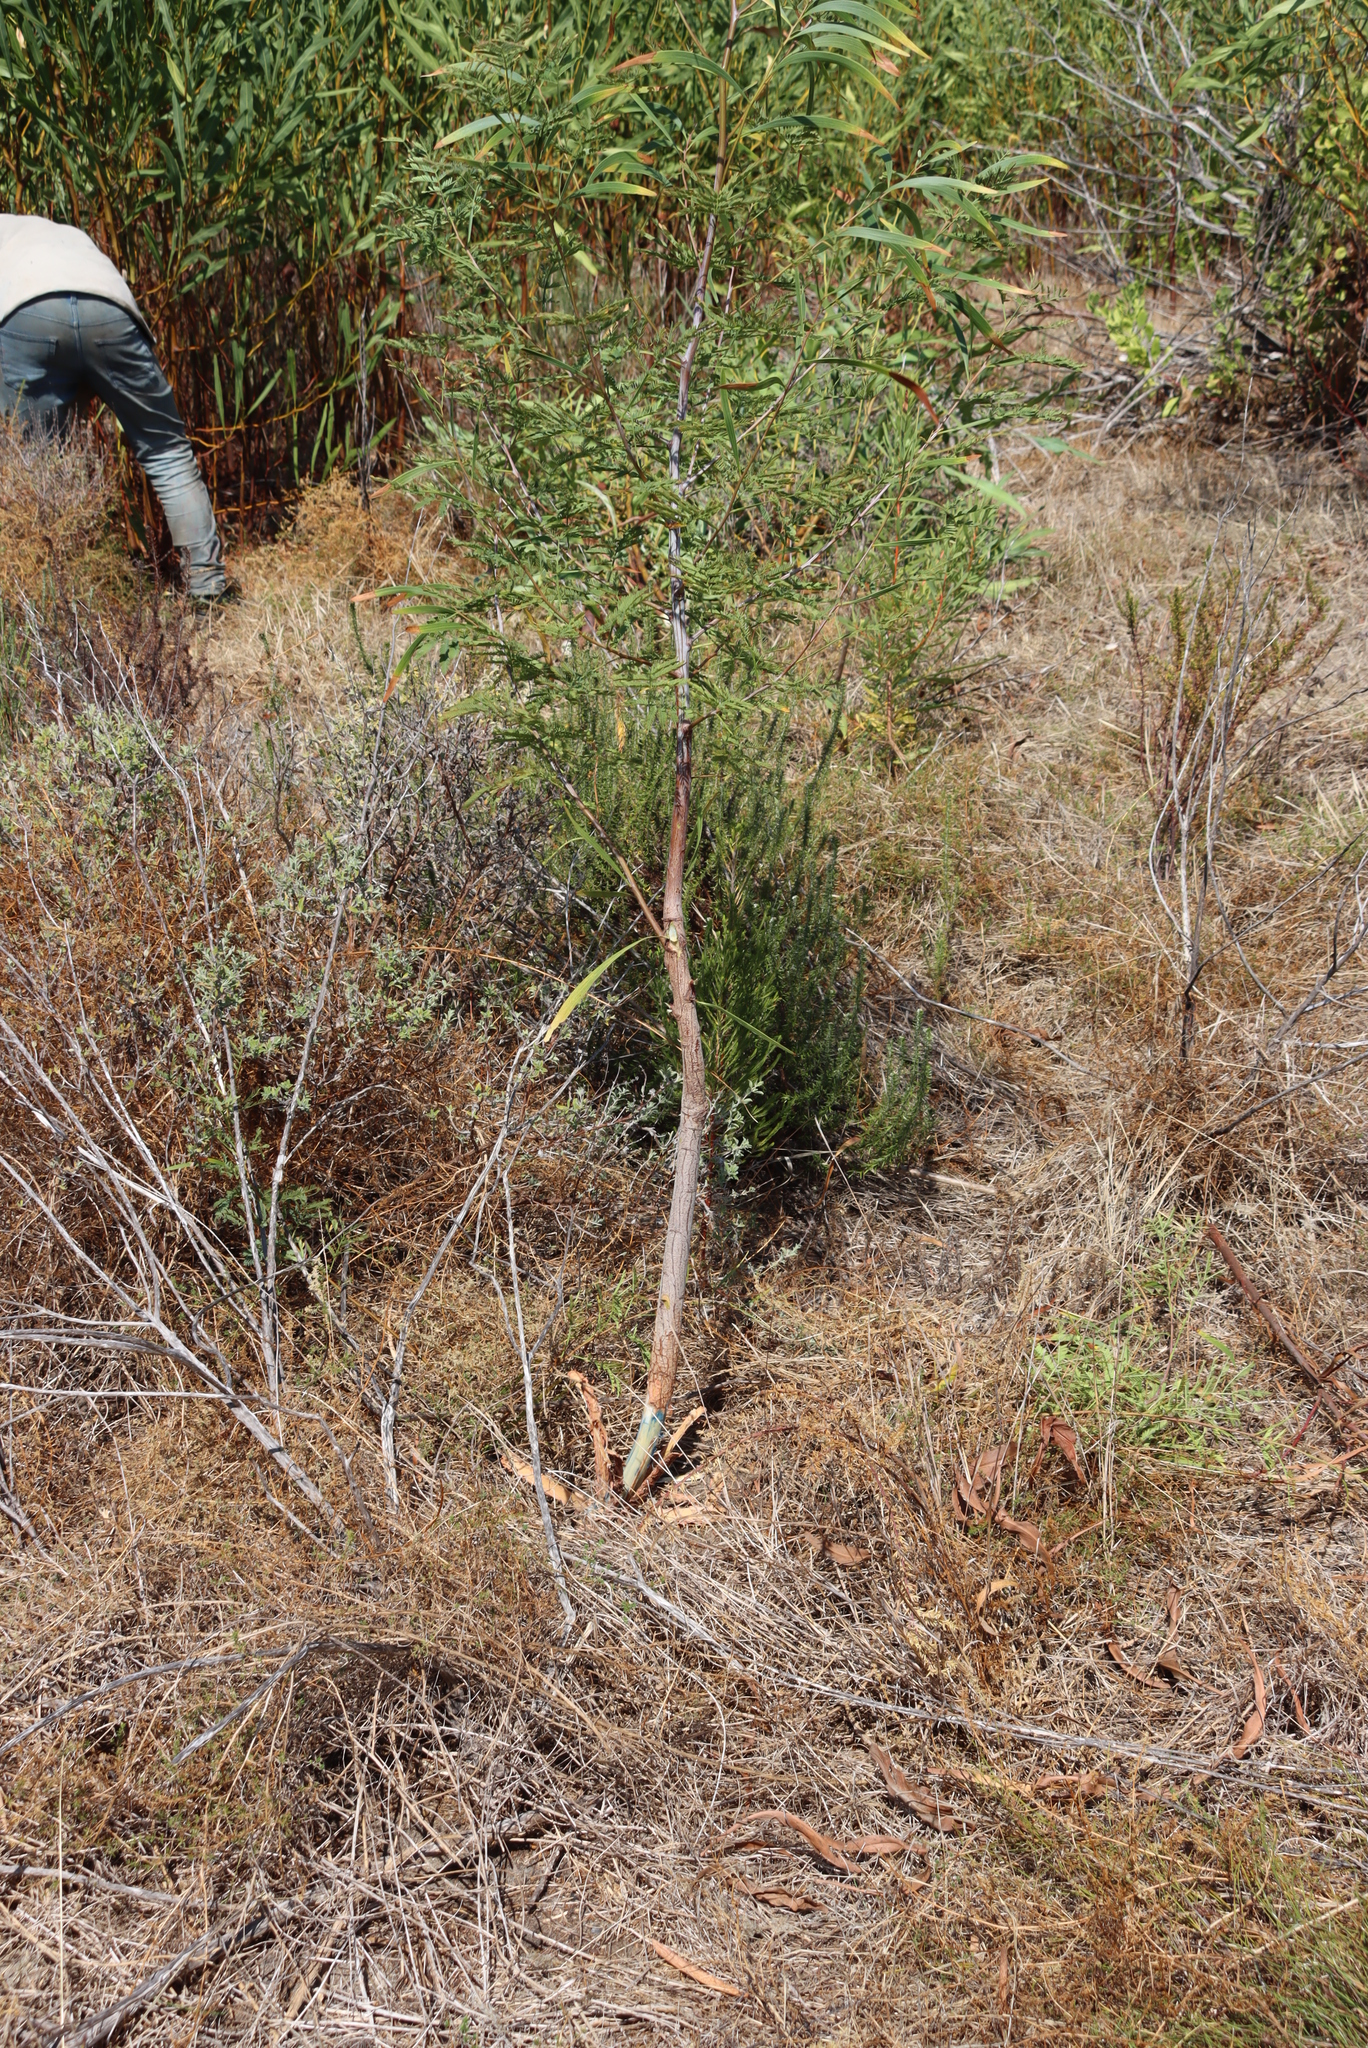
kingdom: Plantae
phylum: Tracheophyta
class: Magnoliopsida
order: Fabales
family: Fabaceae
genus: Acacia
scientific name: Acacia implexa
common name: Black wattle
